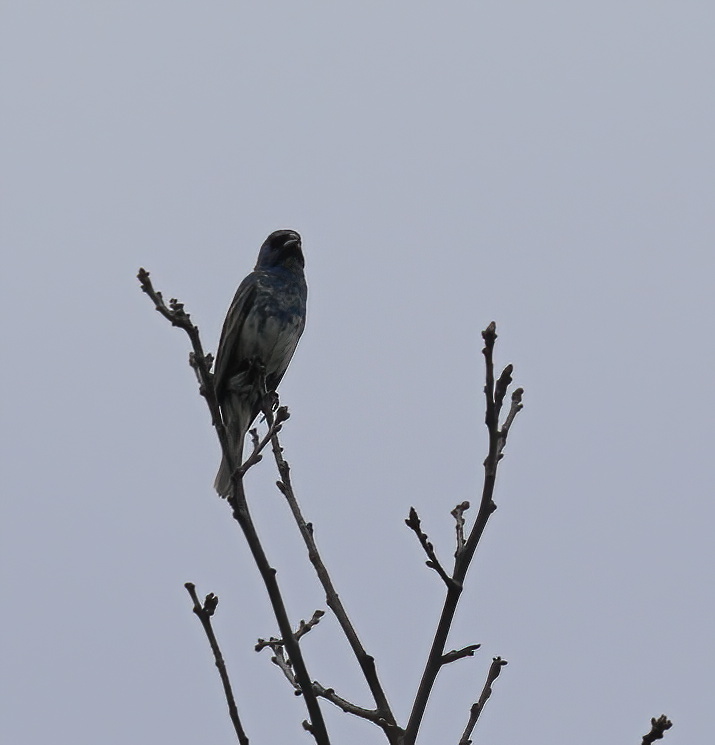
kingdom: Animalia
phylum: Chordata
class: Aves
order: Passeriformes
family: Cardinalidae
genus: Passerina
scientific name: Passerina cyanea
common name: Indigo bunting
